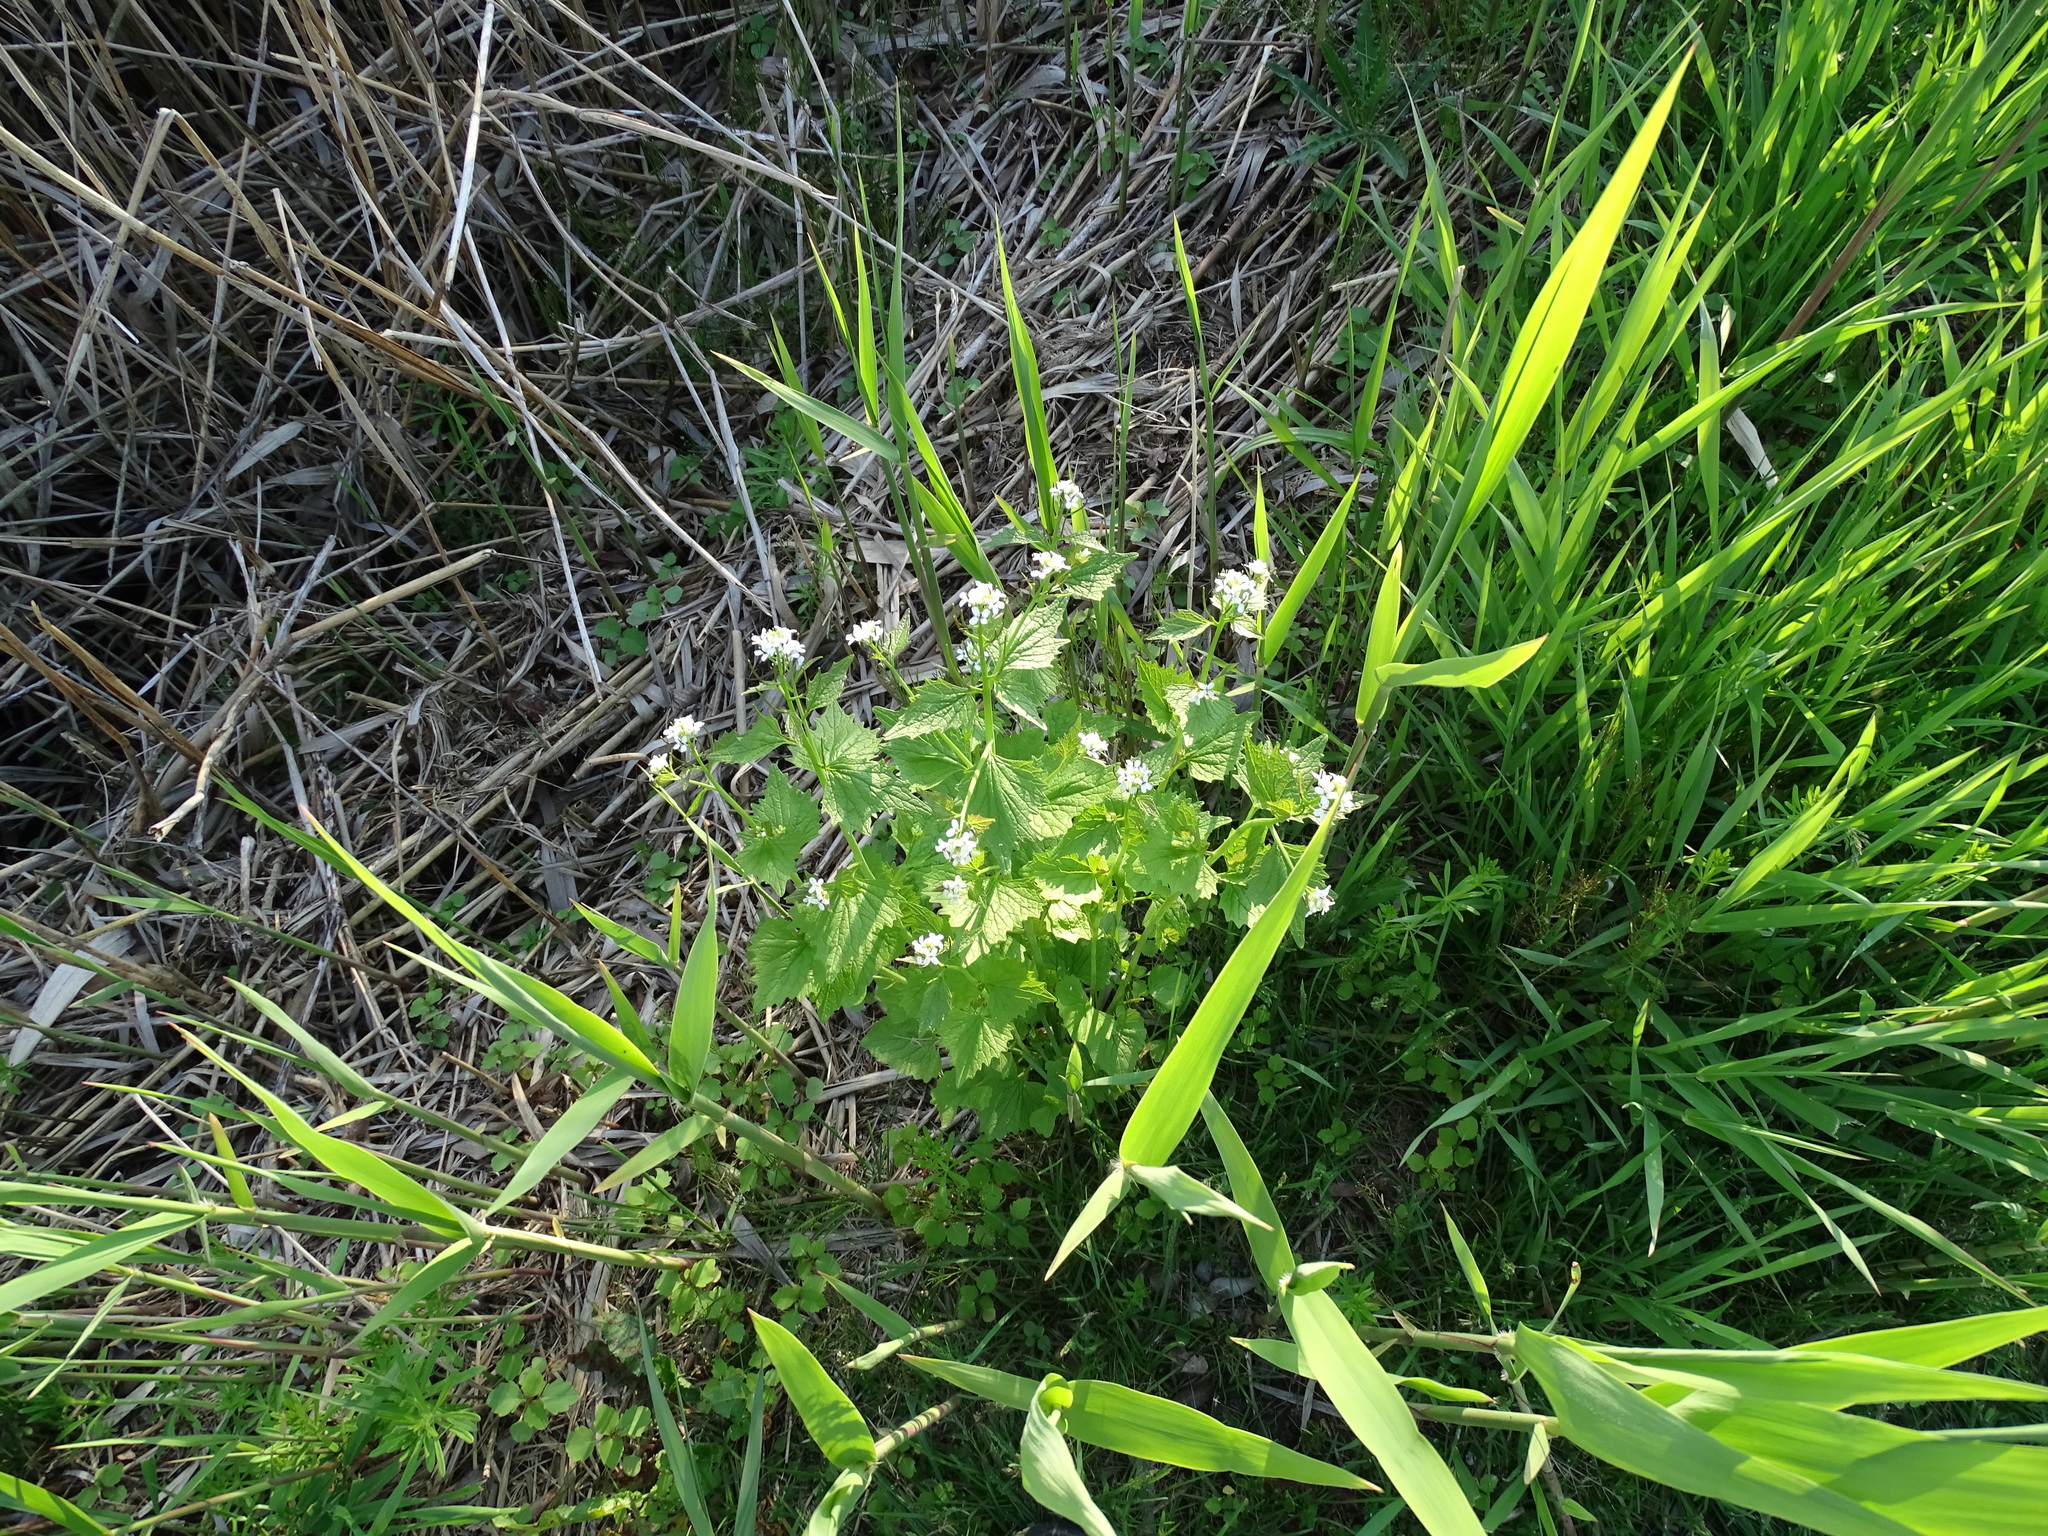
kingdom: Plantae
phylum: Tracheophyta
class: Magnoliopsida
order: Brassicales
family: Brassicaceae
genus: Alliaria
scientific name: Alliaria petiolata
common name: Garlic mustard
